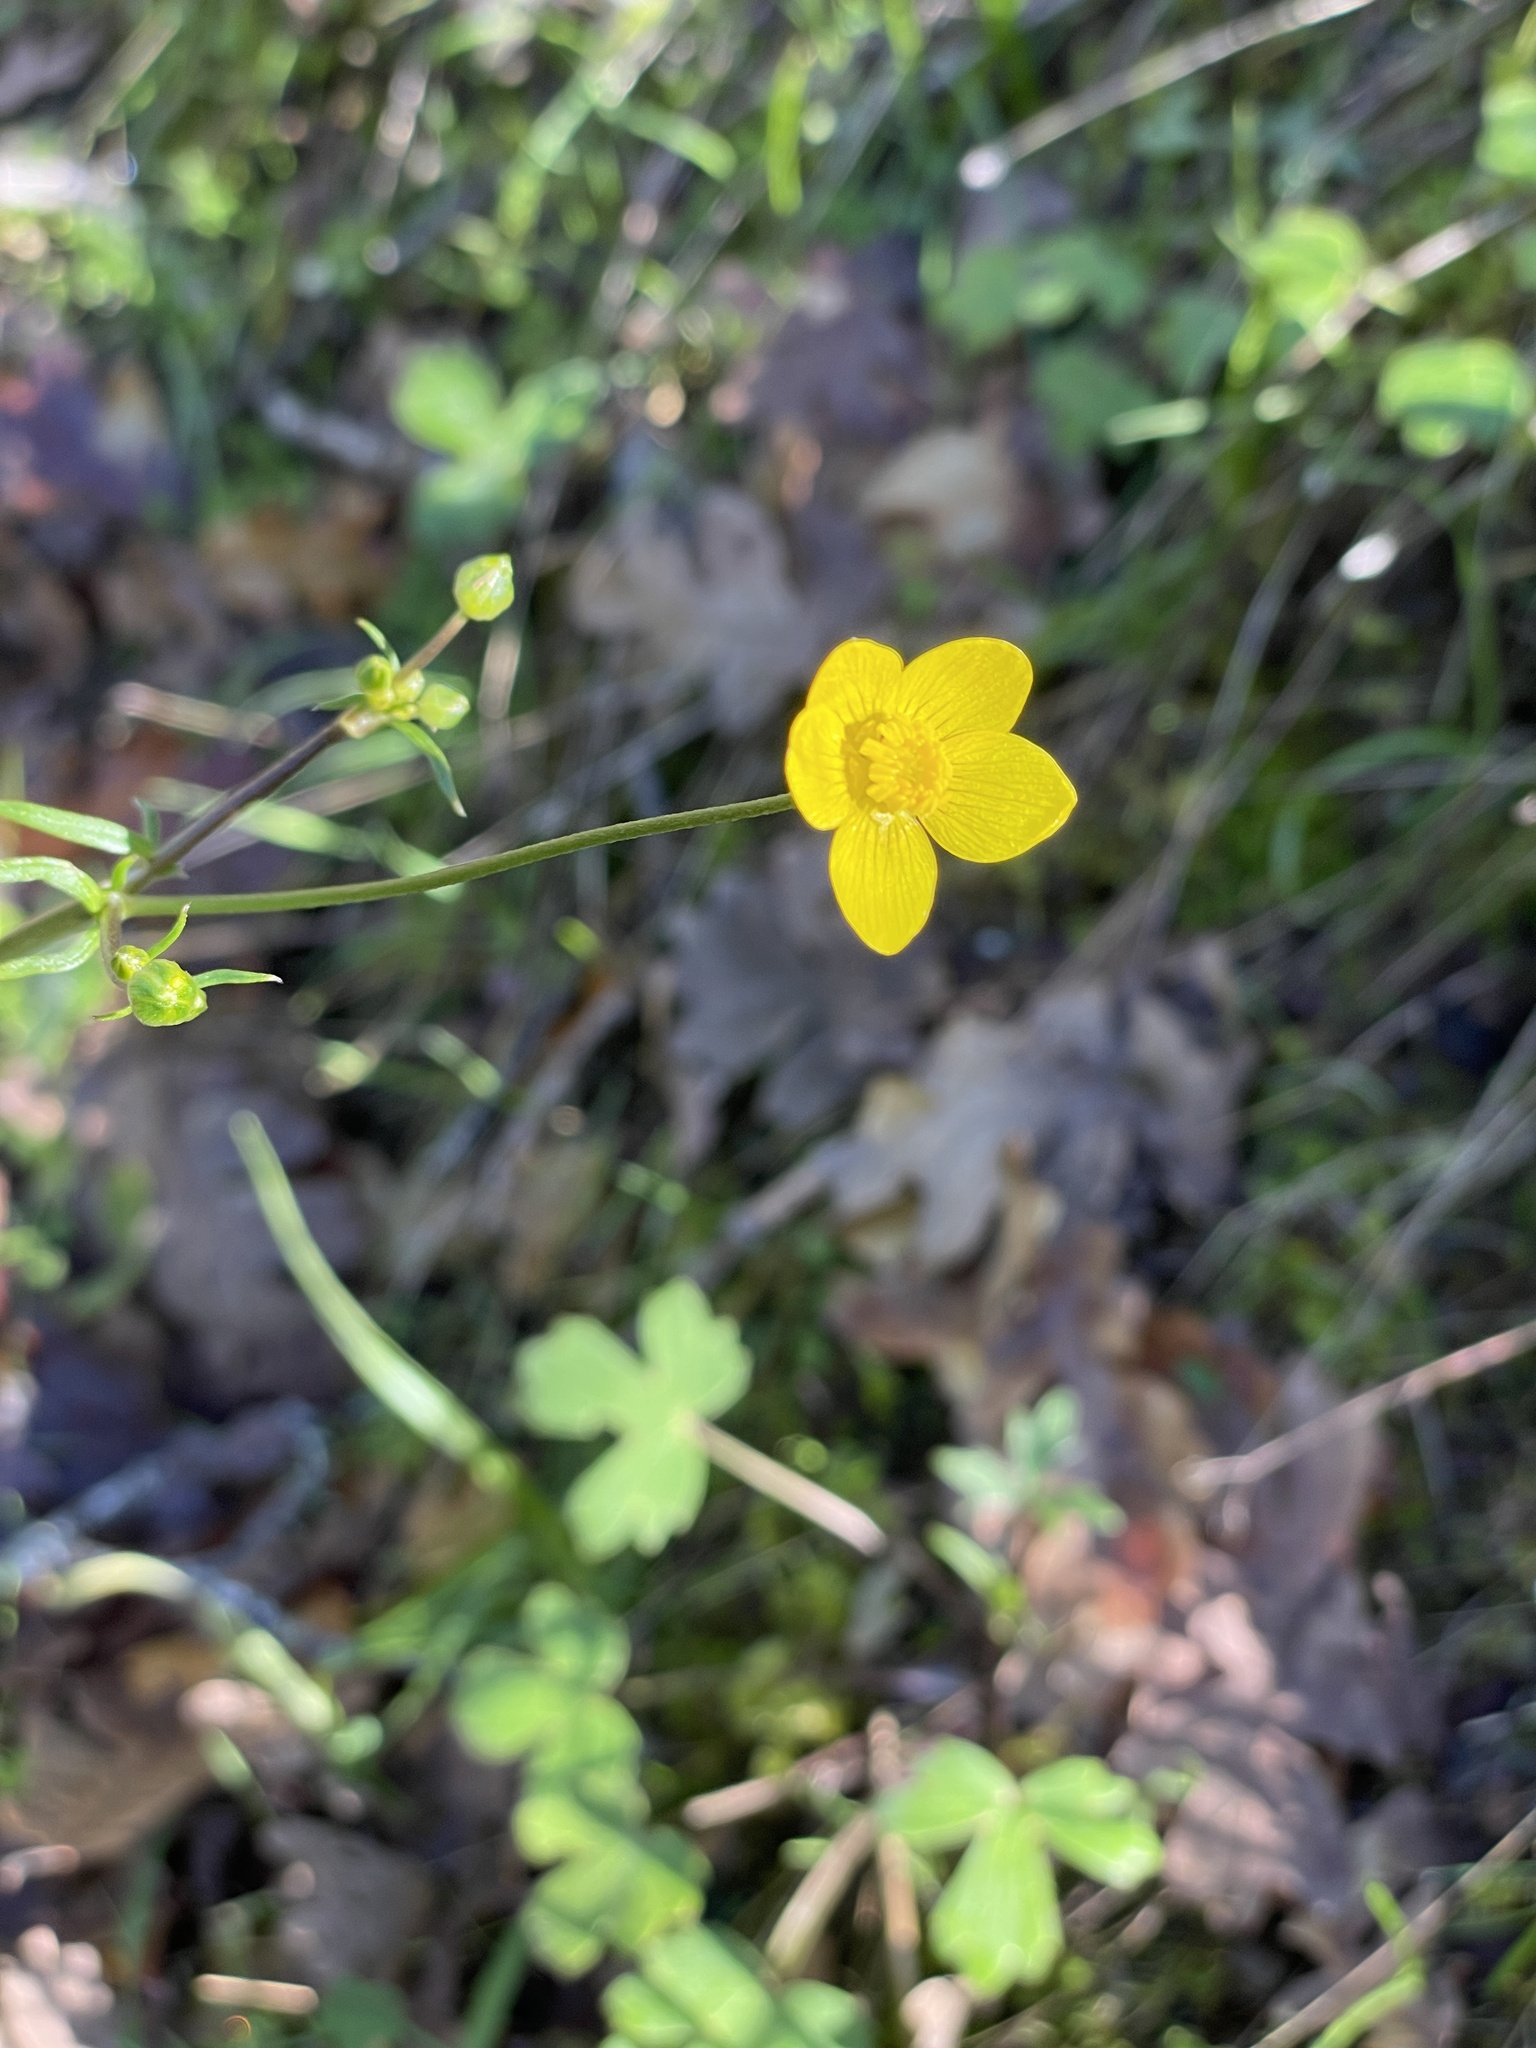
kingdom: Plantae
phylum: Tracheophyta
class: Magnoliopsida
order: Ranunculales
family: Ranunculaceae
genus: Ranunculus
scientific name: Ranunculus occidentalis
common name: Western buttercup
